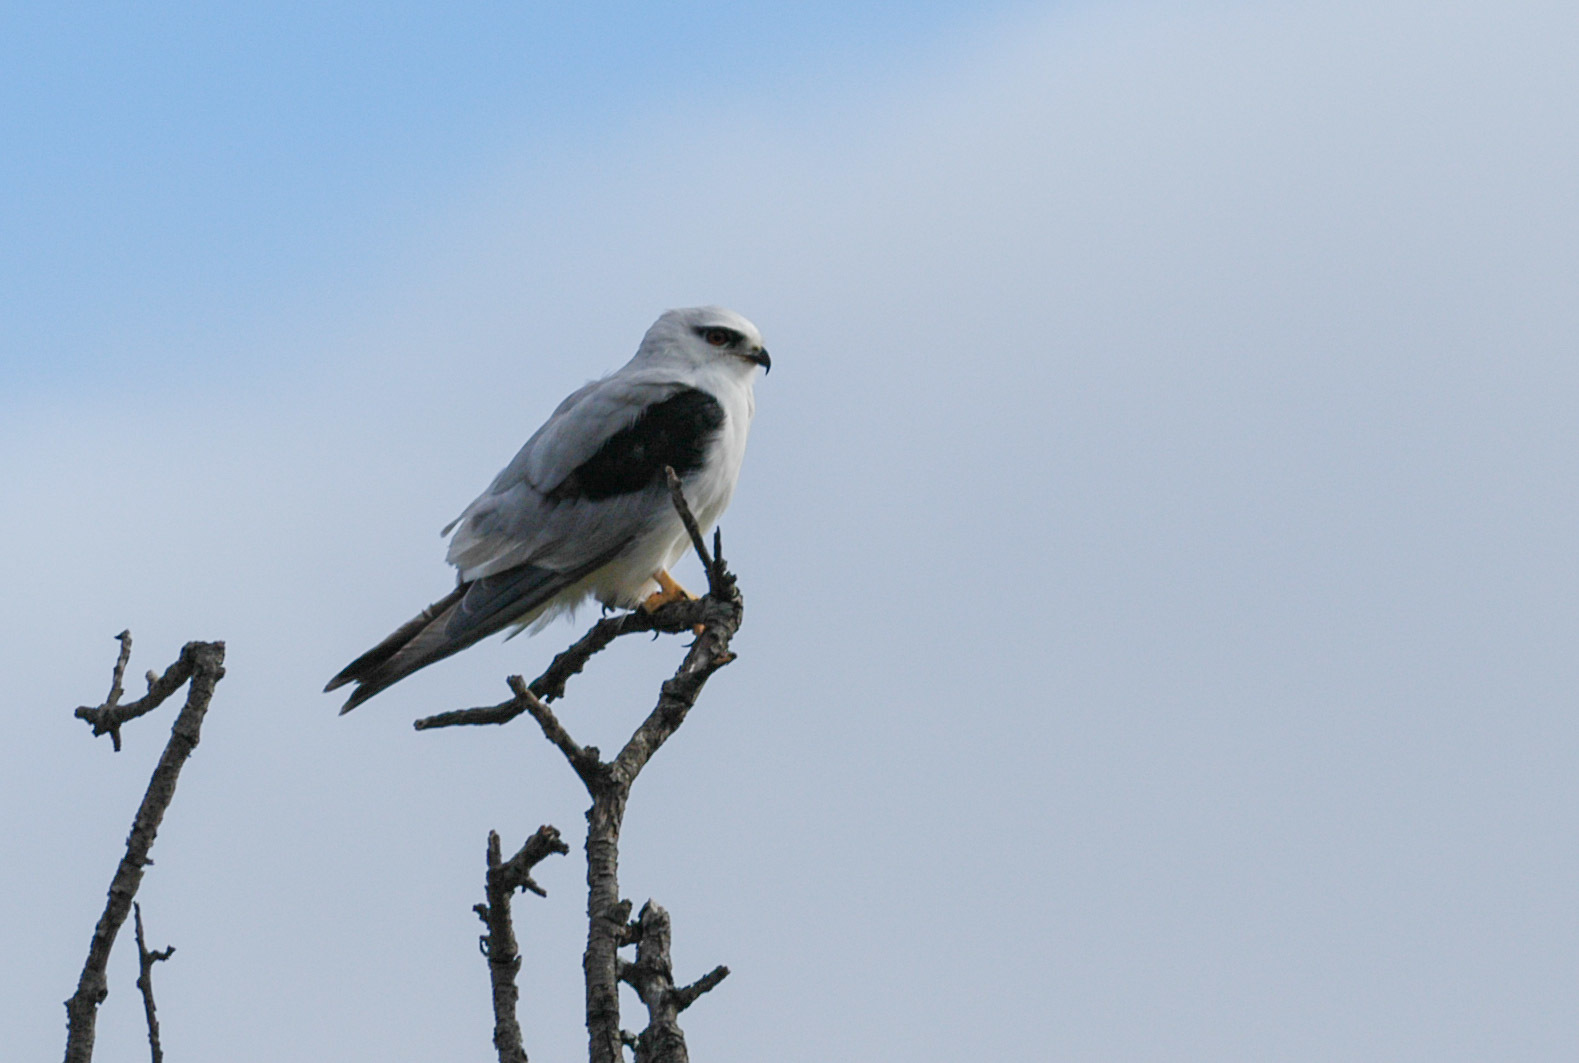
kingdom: Animalia
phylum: Chordata
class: Aves
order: Accipitriformes
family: Accipitridae
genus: Elanus
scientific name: Elanus axillaris
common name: Black-shouldered kite
